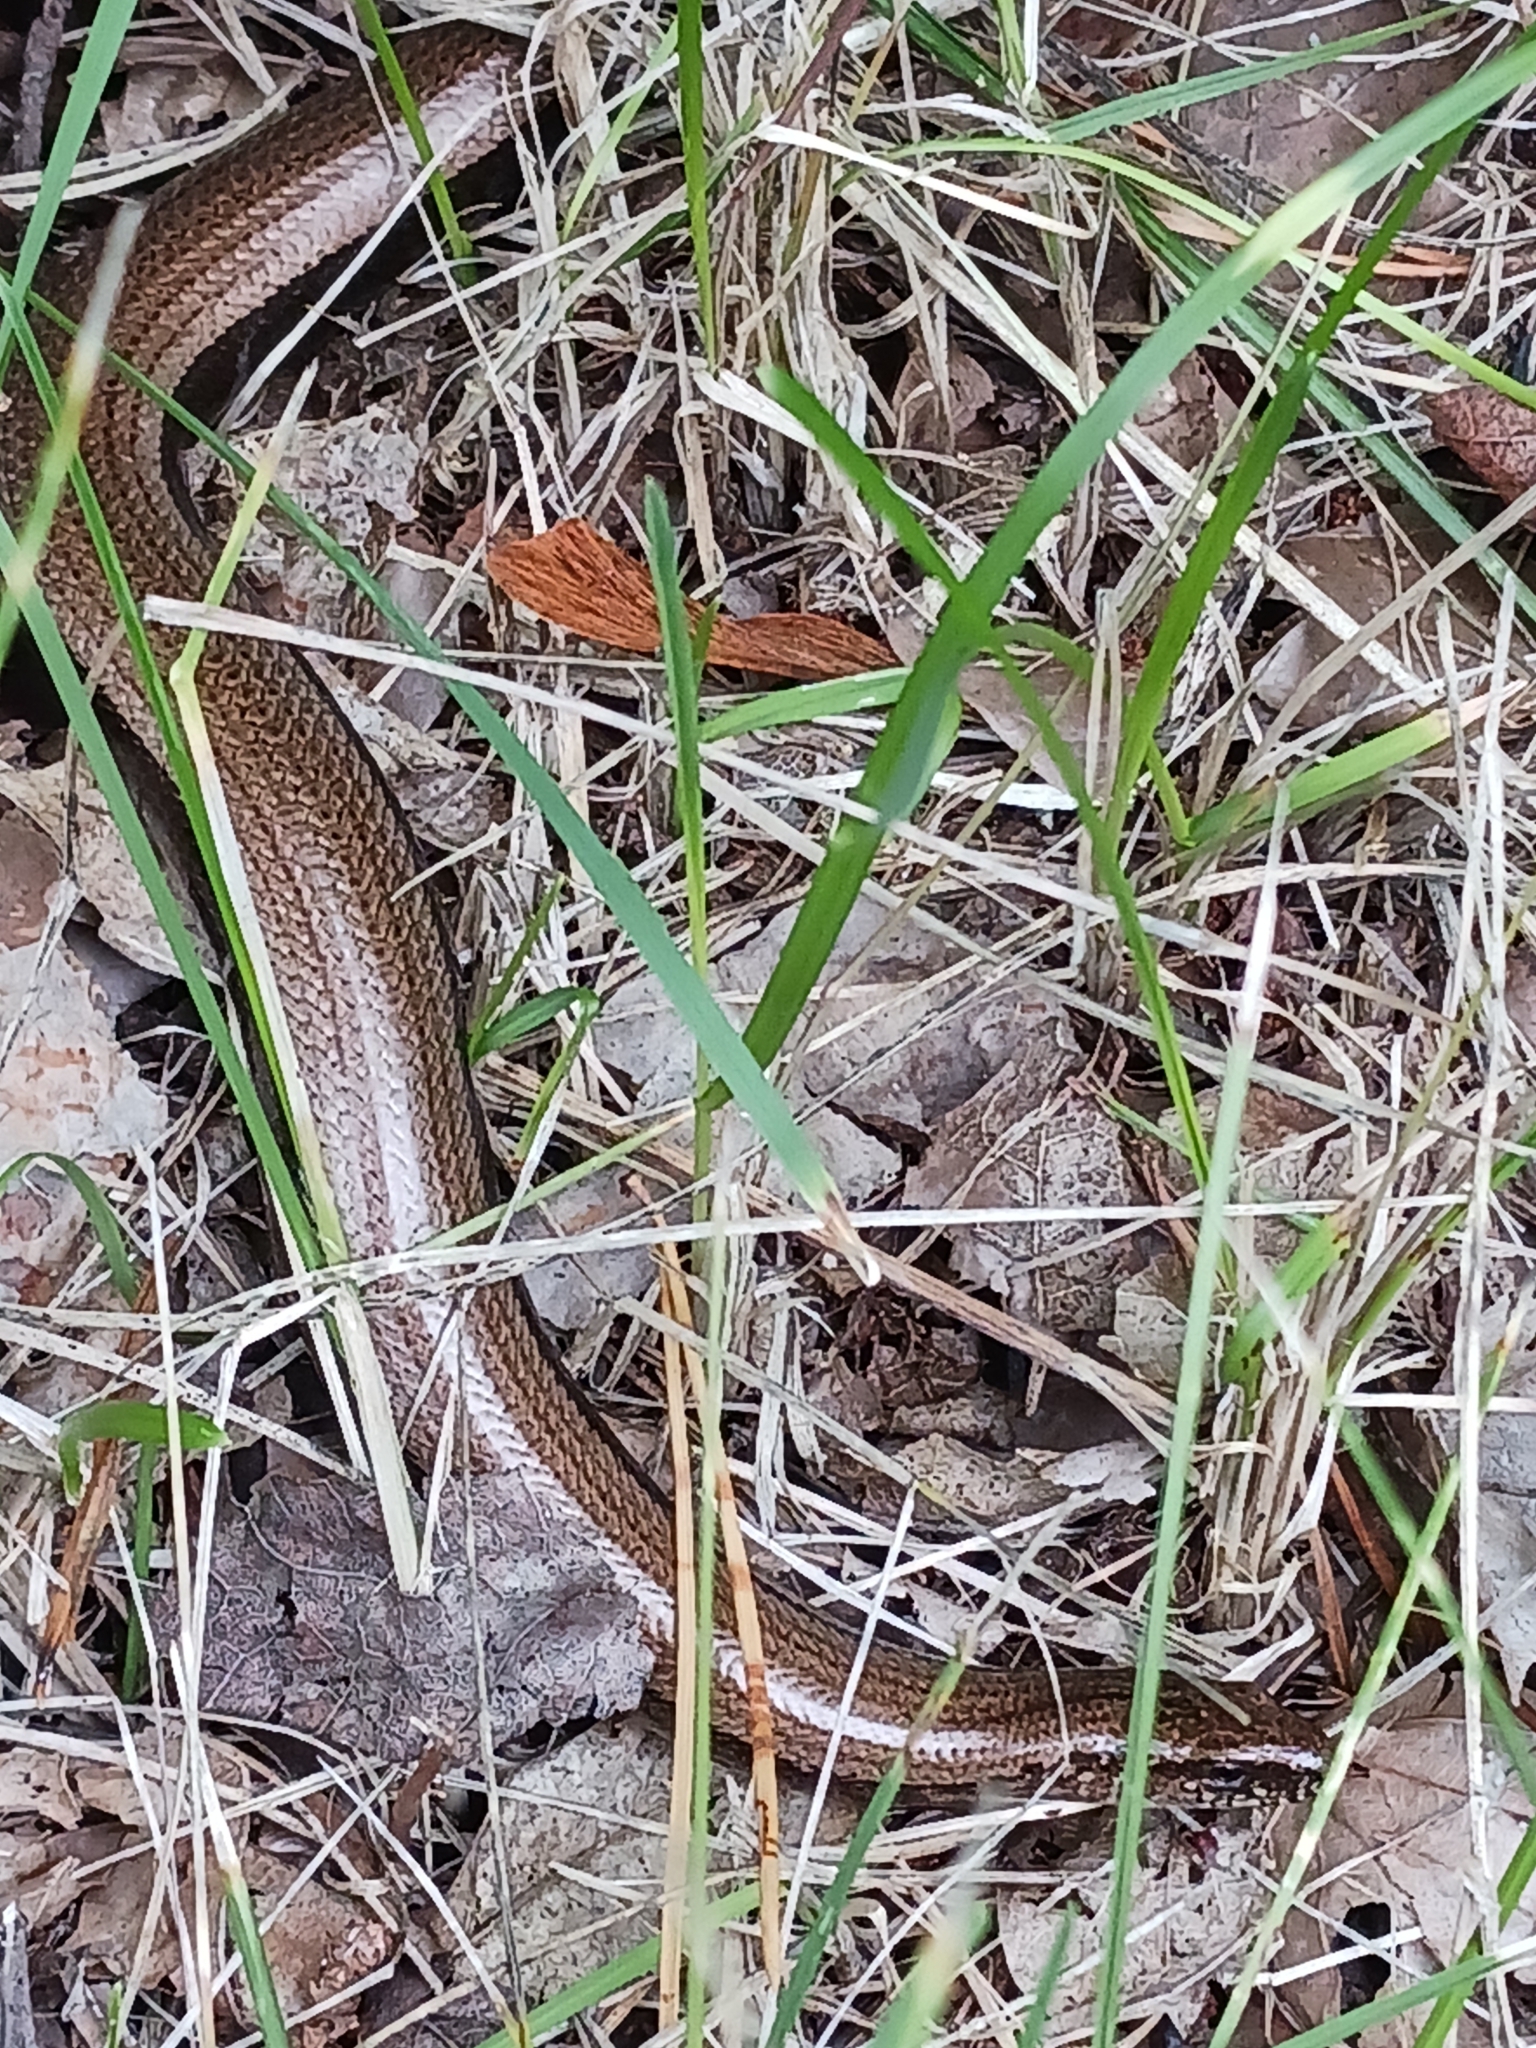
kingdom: Animalia
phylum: Chordata
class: Squamata
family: Anguidae
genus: Anguis
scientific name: Anguis fragilis
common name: Slow worm
